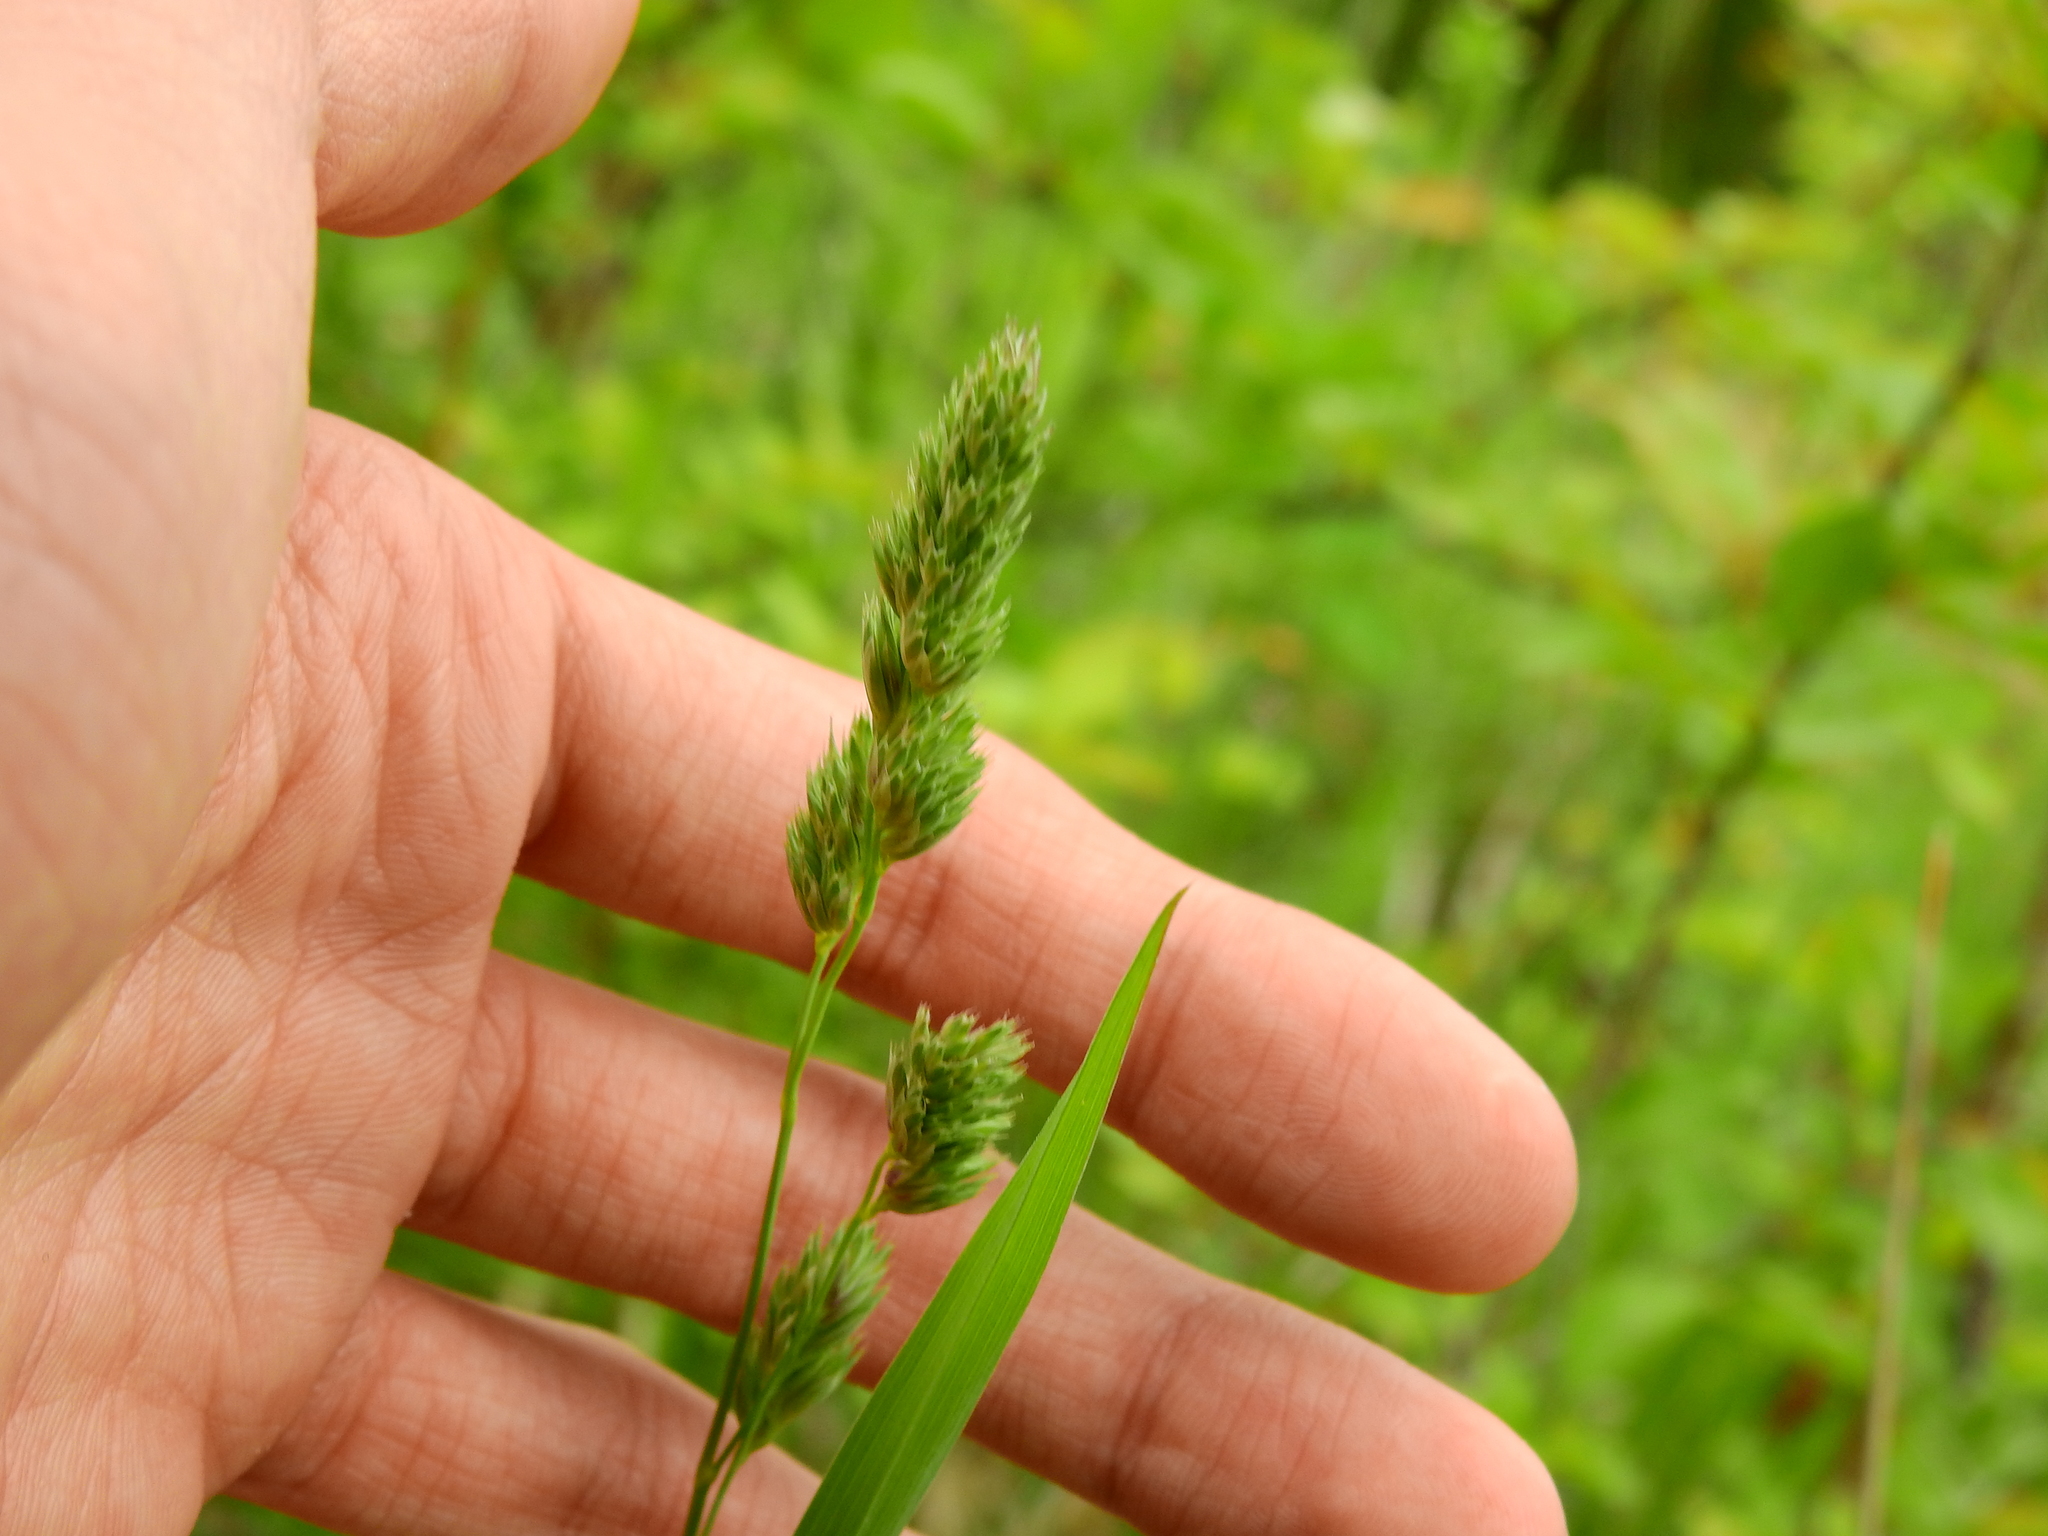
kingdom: Plantae
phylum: Tracheophyta
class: Liliopsida
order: Poales
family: Poaceae
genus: Dactylis
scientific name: Dactylis glomerata
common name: Orchardgrass
